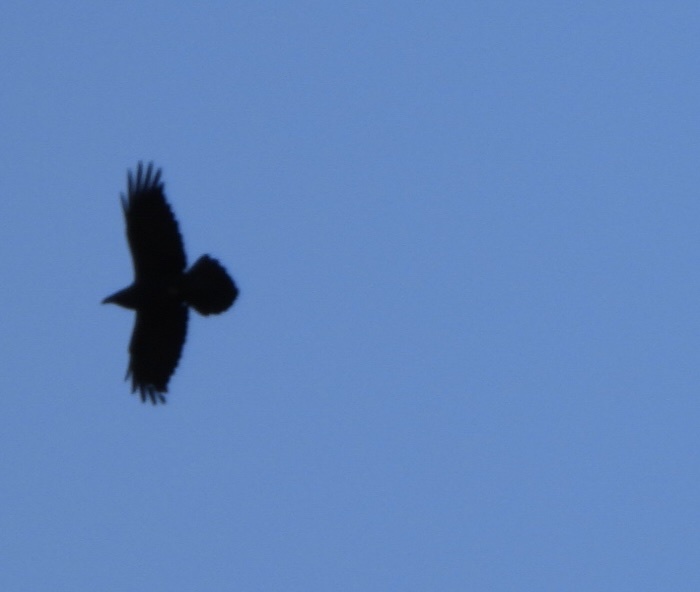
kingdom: Animalia
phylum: Chordata
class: Aves
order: Passeriformes
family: Corvidae
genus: Corvus
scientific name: Corvus corax
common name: Common raven
